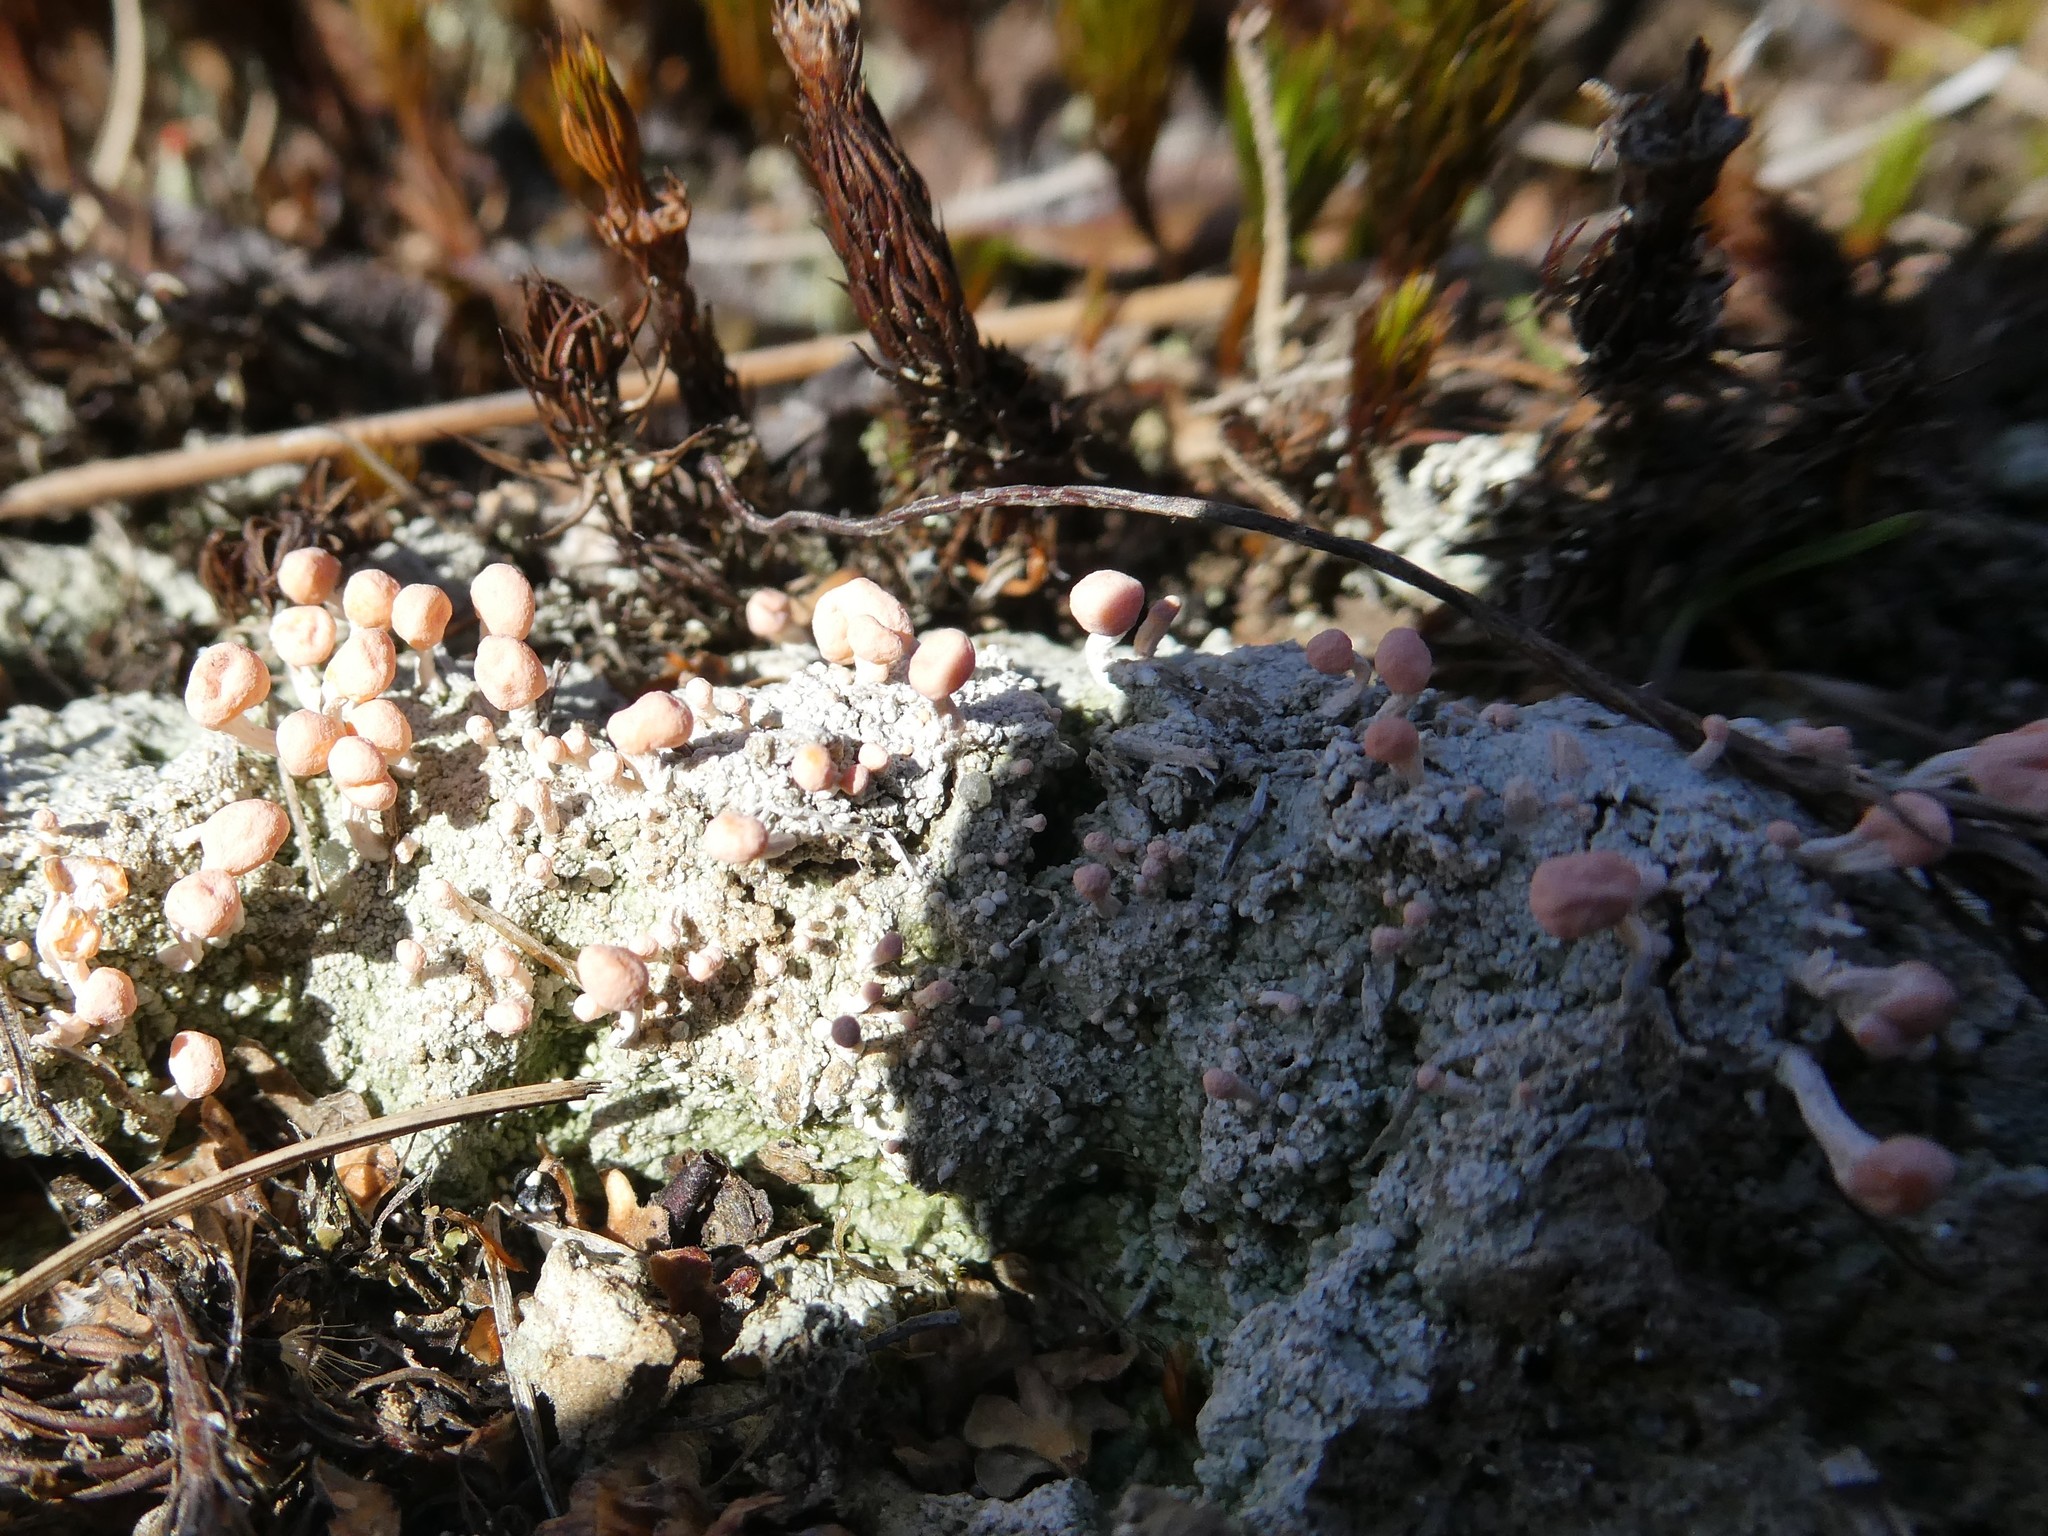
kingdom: Fungi
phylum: Ascomycota
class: Lecanoromycetes
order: Pertusariales
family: Icmadophilaceae
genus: Dibaeis
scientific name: Dibaeis baeomyces
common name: Pink earth lichen
